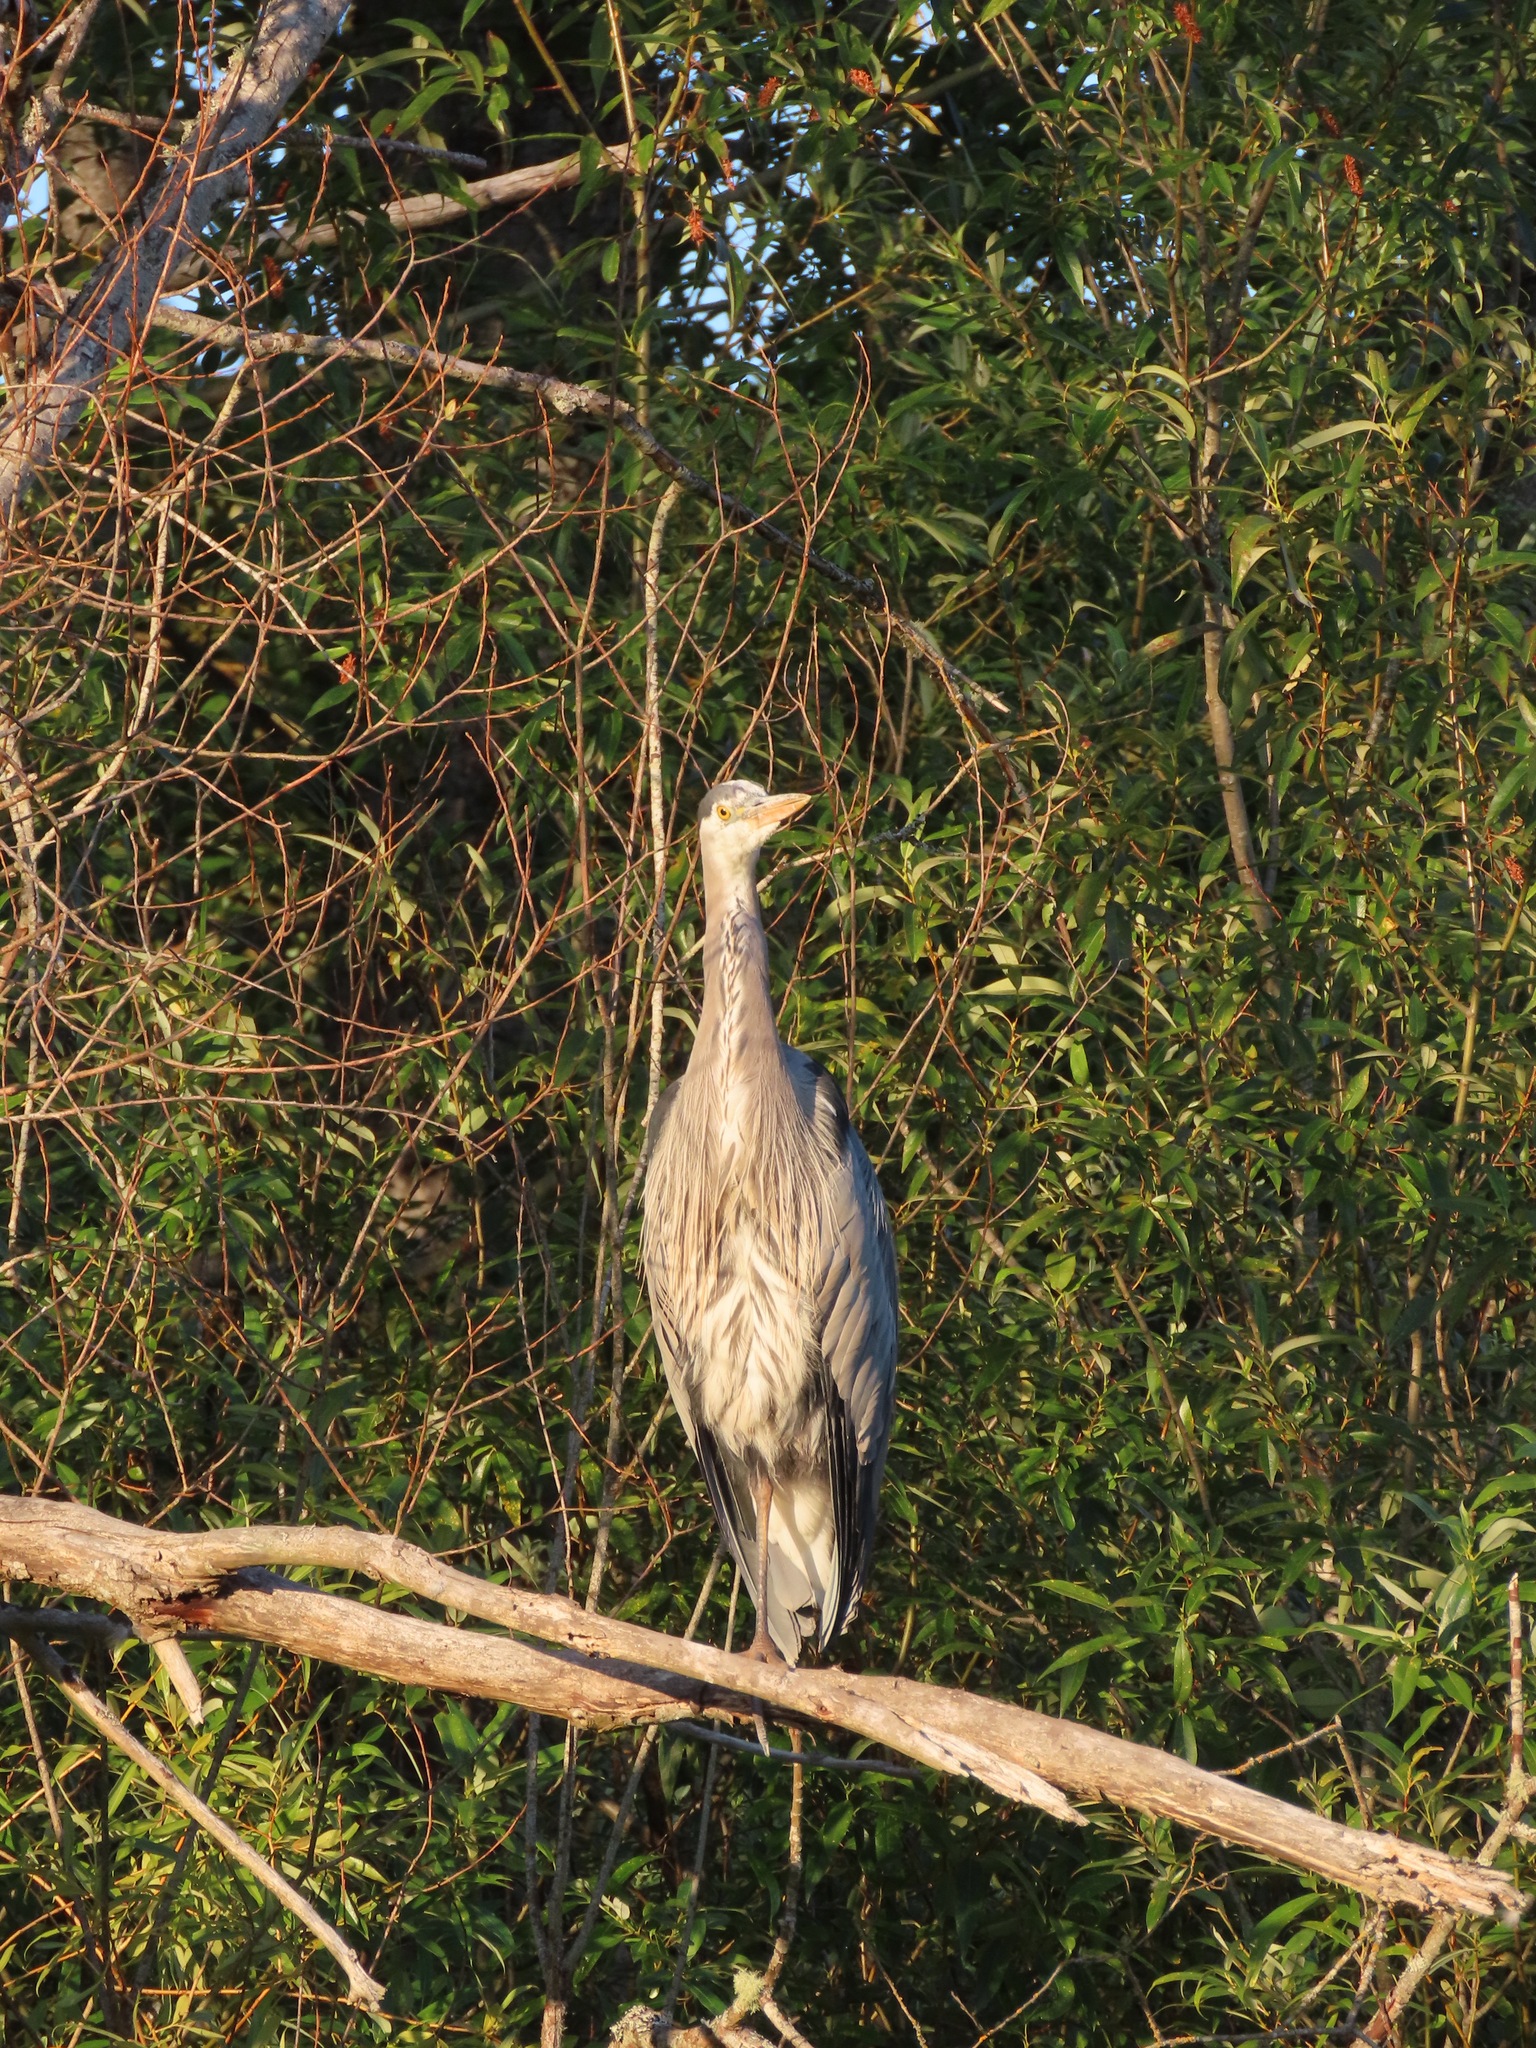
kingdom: Animalia
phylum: Chordata
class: Aves
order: Pelecaniformes
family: Ardeidae
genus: Ardea
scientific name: Ardea herodias
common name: Great blue heron
